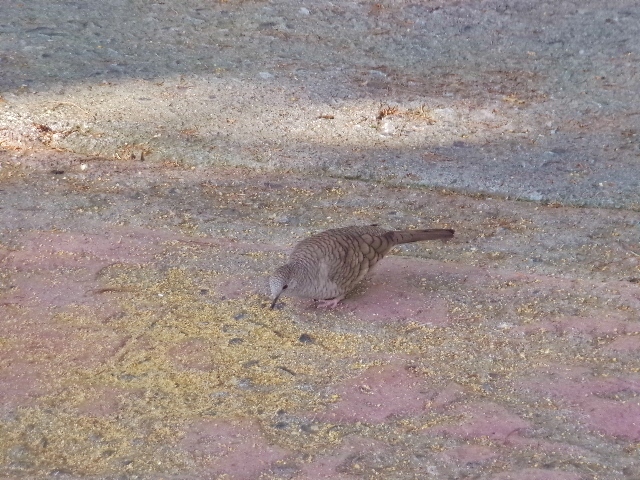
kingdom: Animalia
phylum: Chordata
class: Aves
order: Columbiformes
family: Columbidae
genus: Columbina
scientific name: Columbina inca
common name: Inca dove
